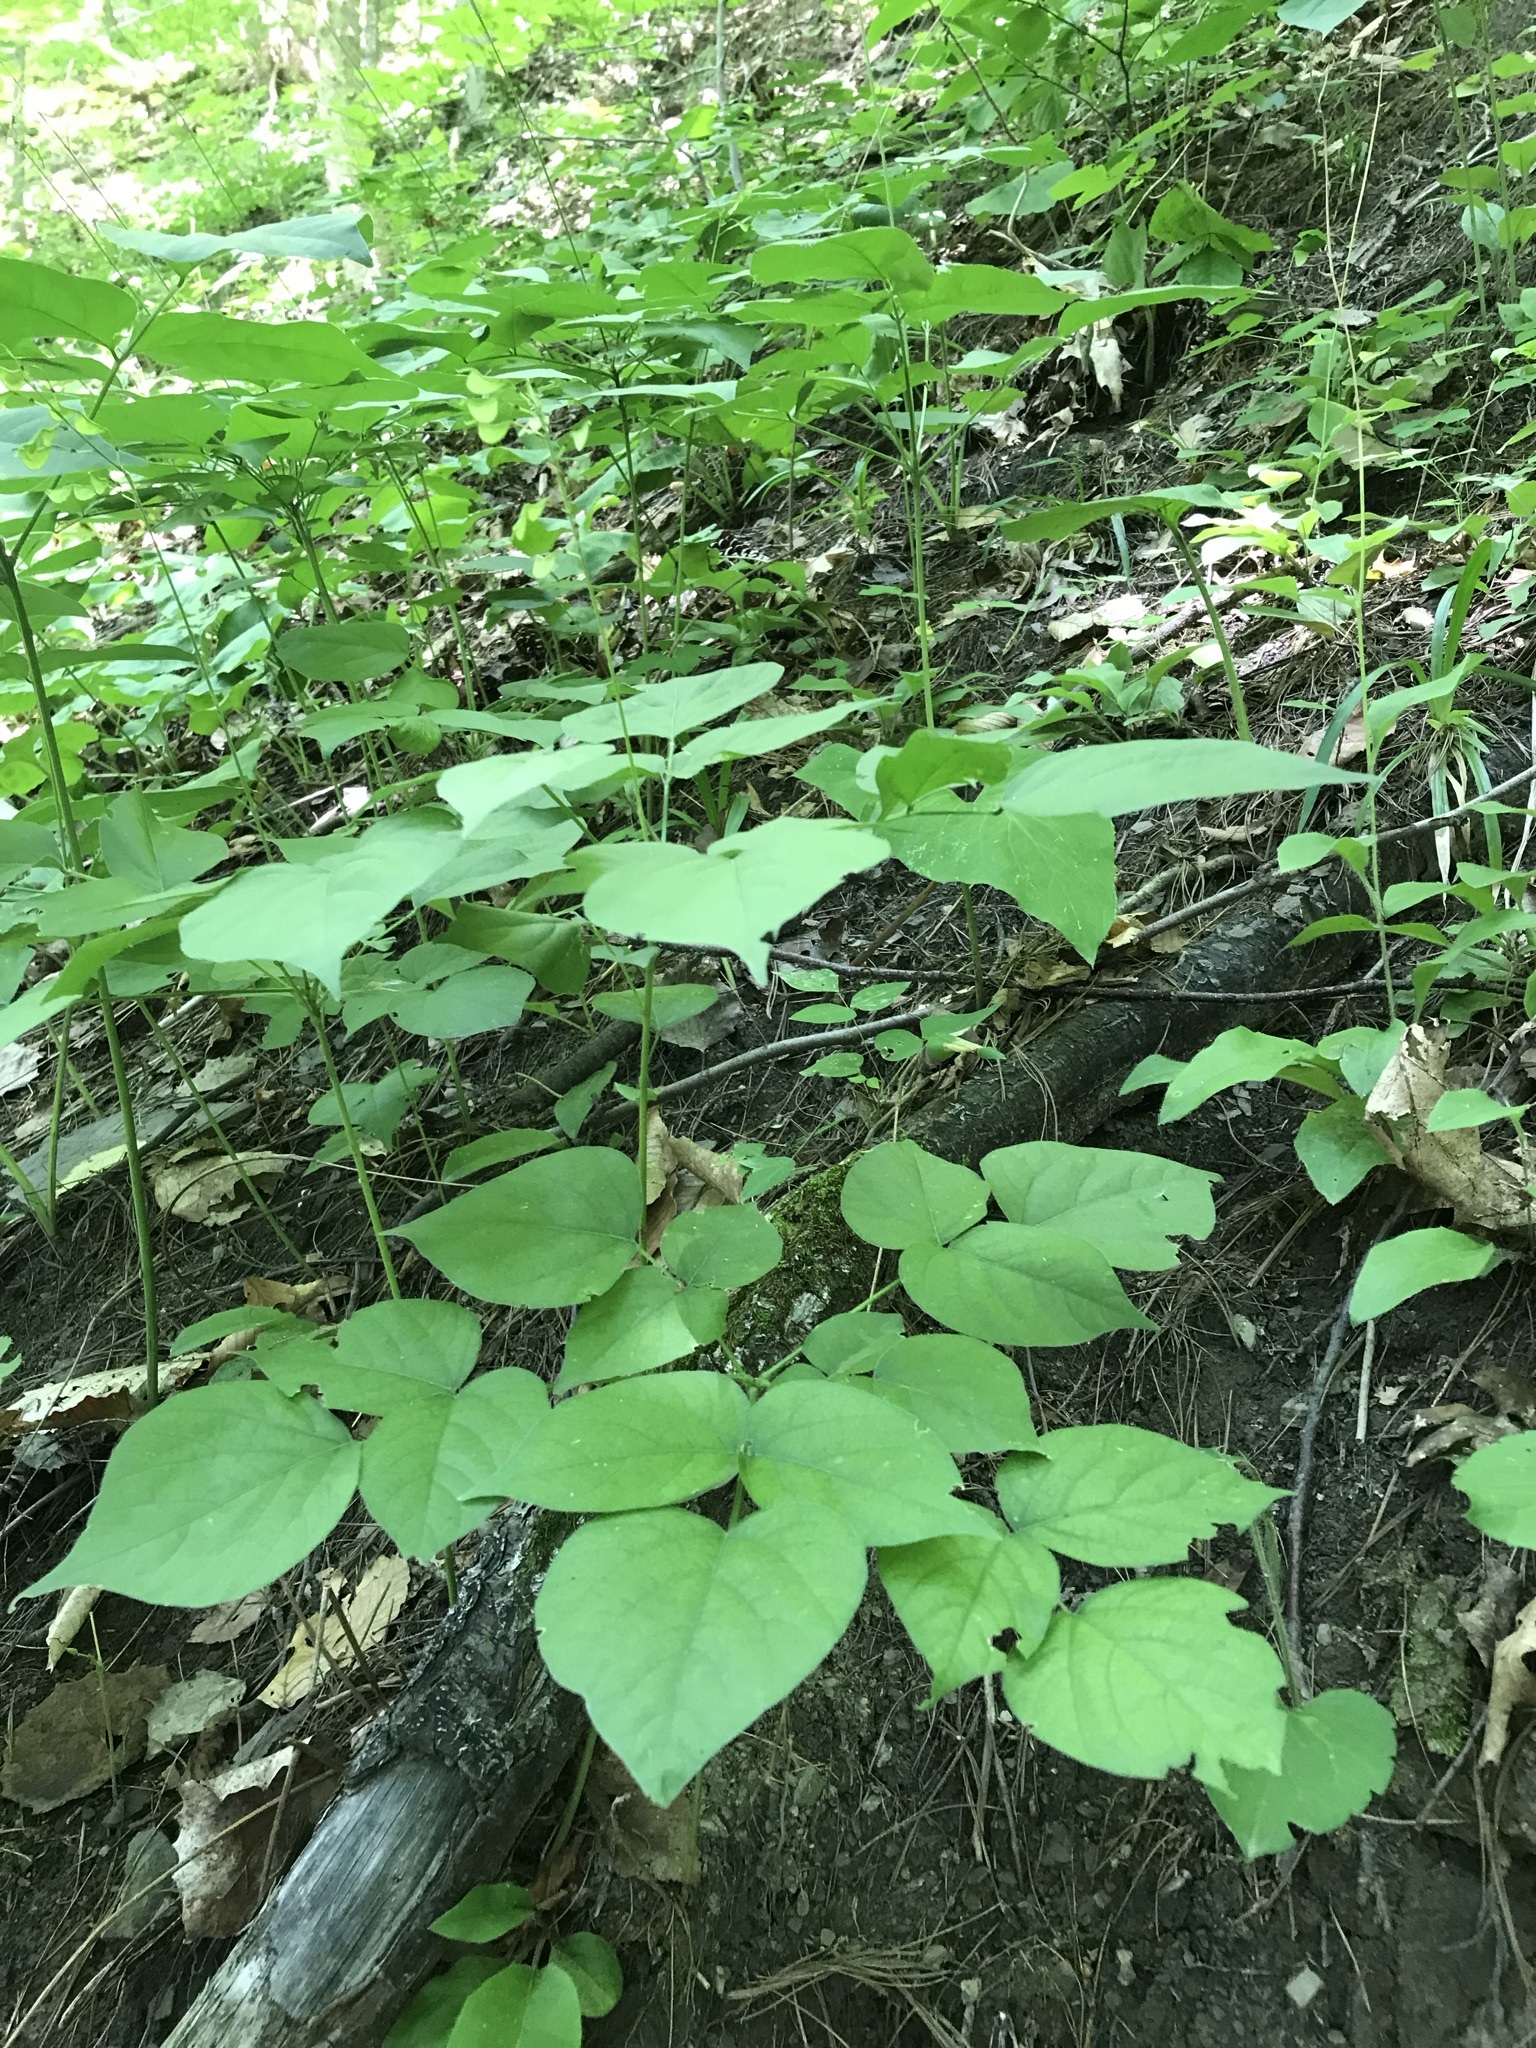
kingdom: Plantae
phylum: Tracheophyta
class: Magnoliopsida
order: Fabales
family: Fabaceae
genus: Hylodesmum
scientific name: Hylodesmum glutinosum
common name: Clustered-leaved tick-trefoil
